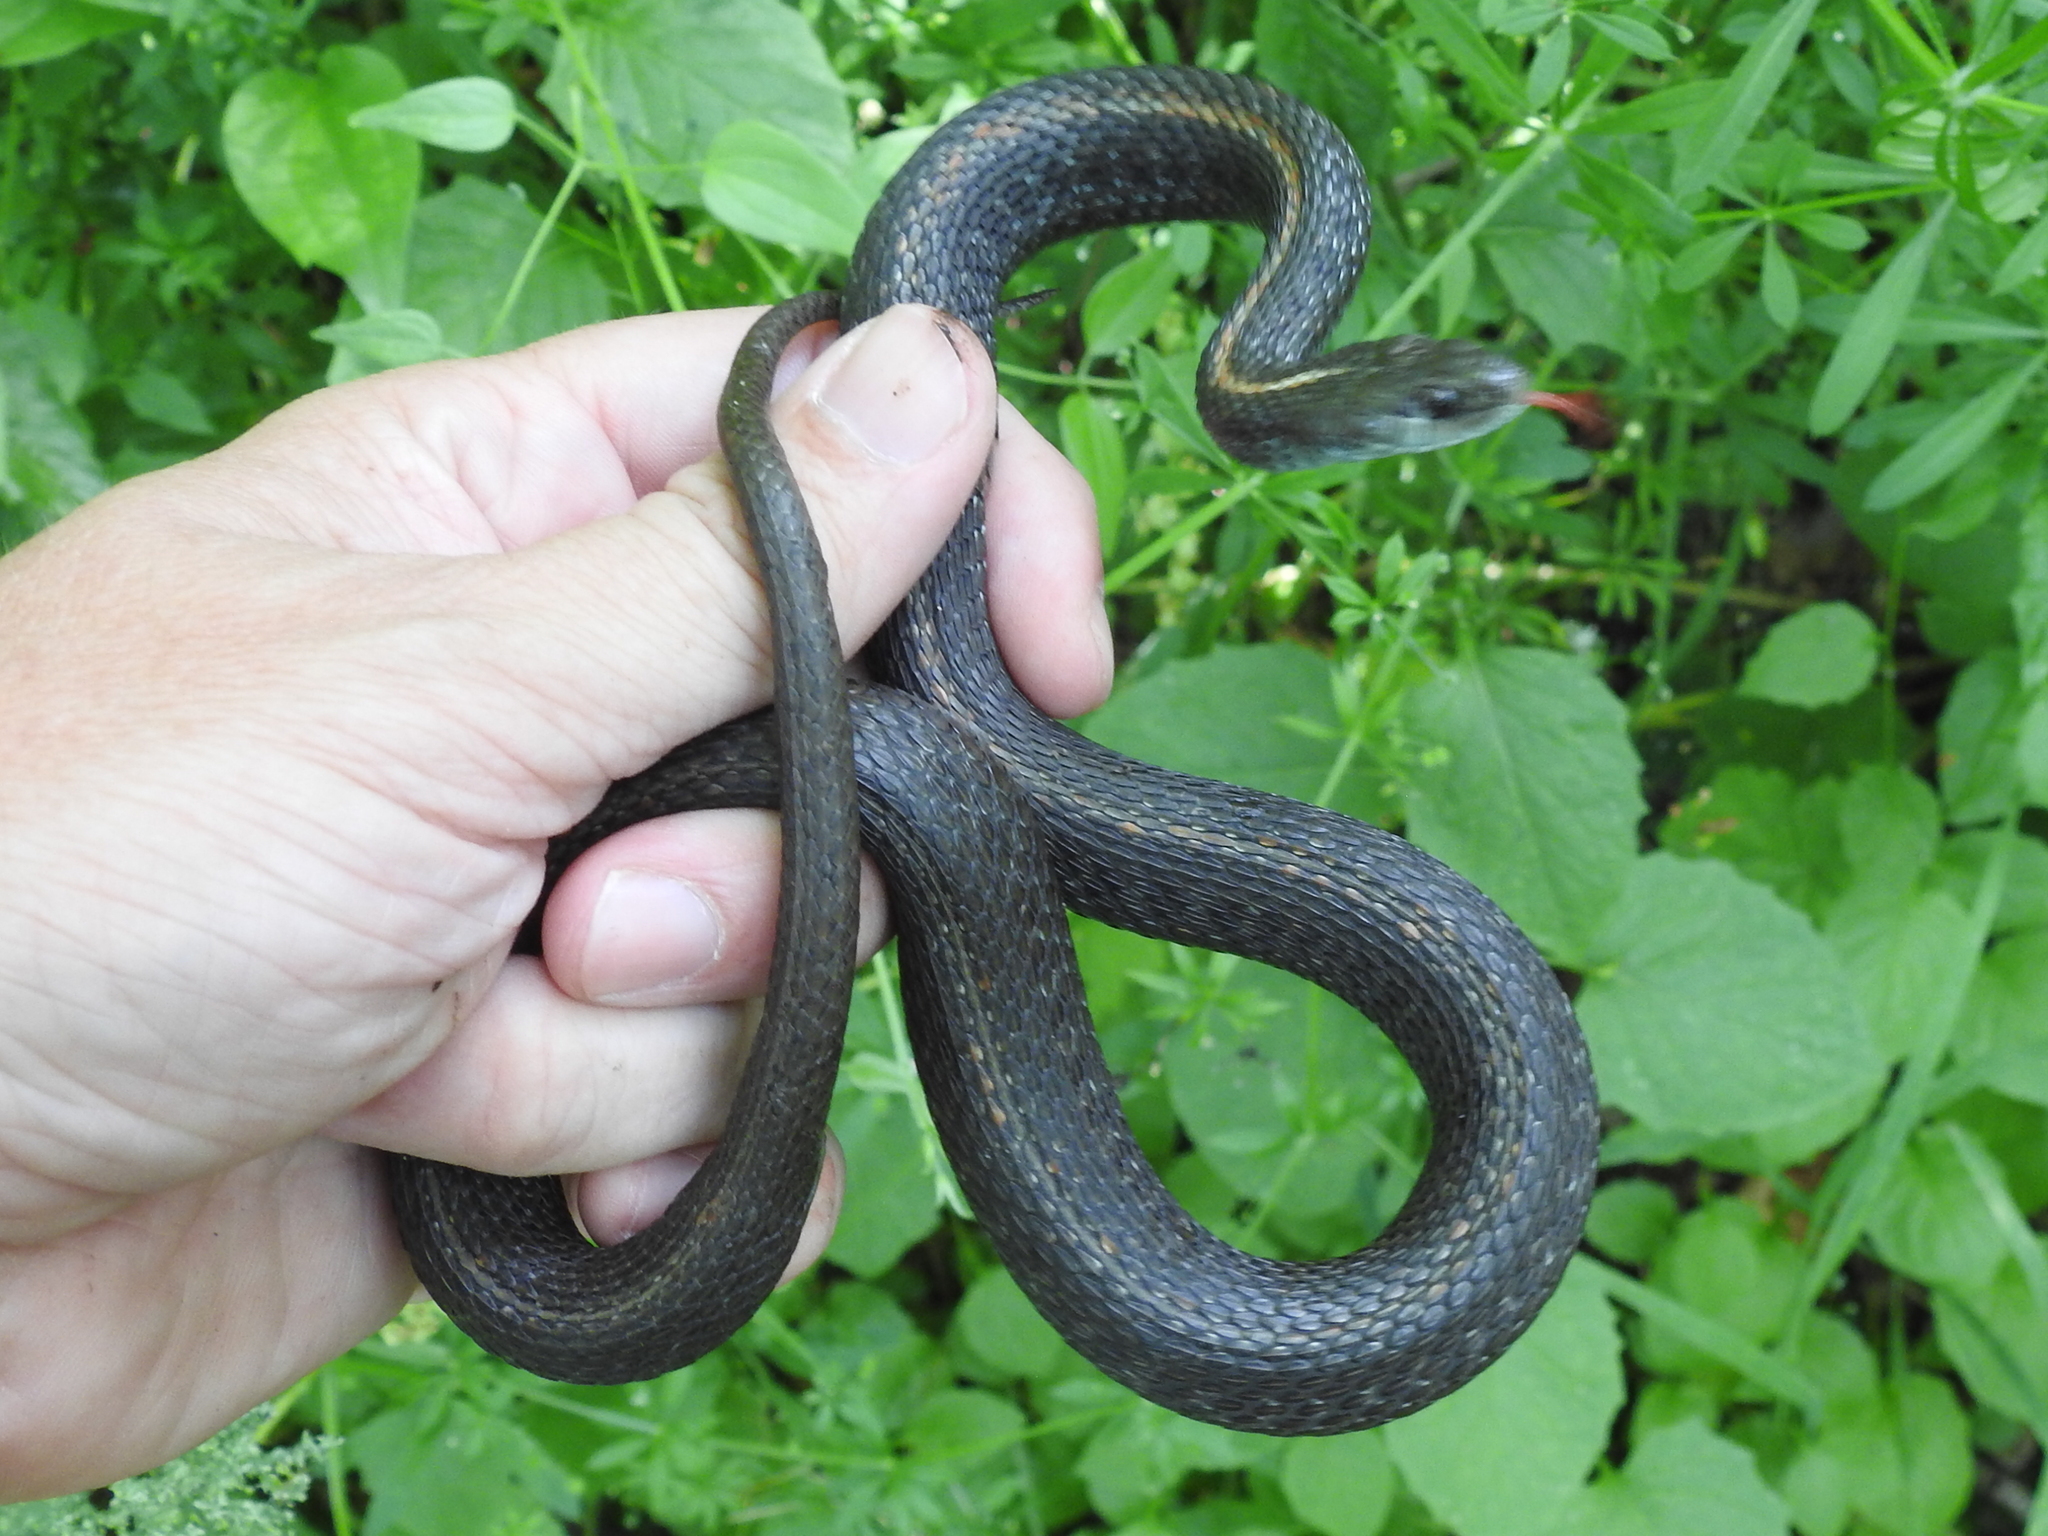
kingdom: Animalia
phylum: Chordata
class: Squamata
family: Colubridae
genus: Thamnophis
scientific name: Thamnophis ordinoides
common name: Northwestern garter snake
